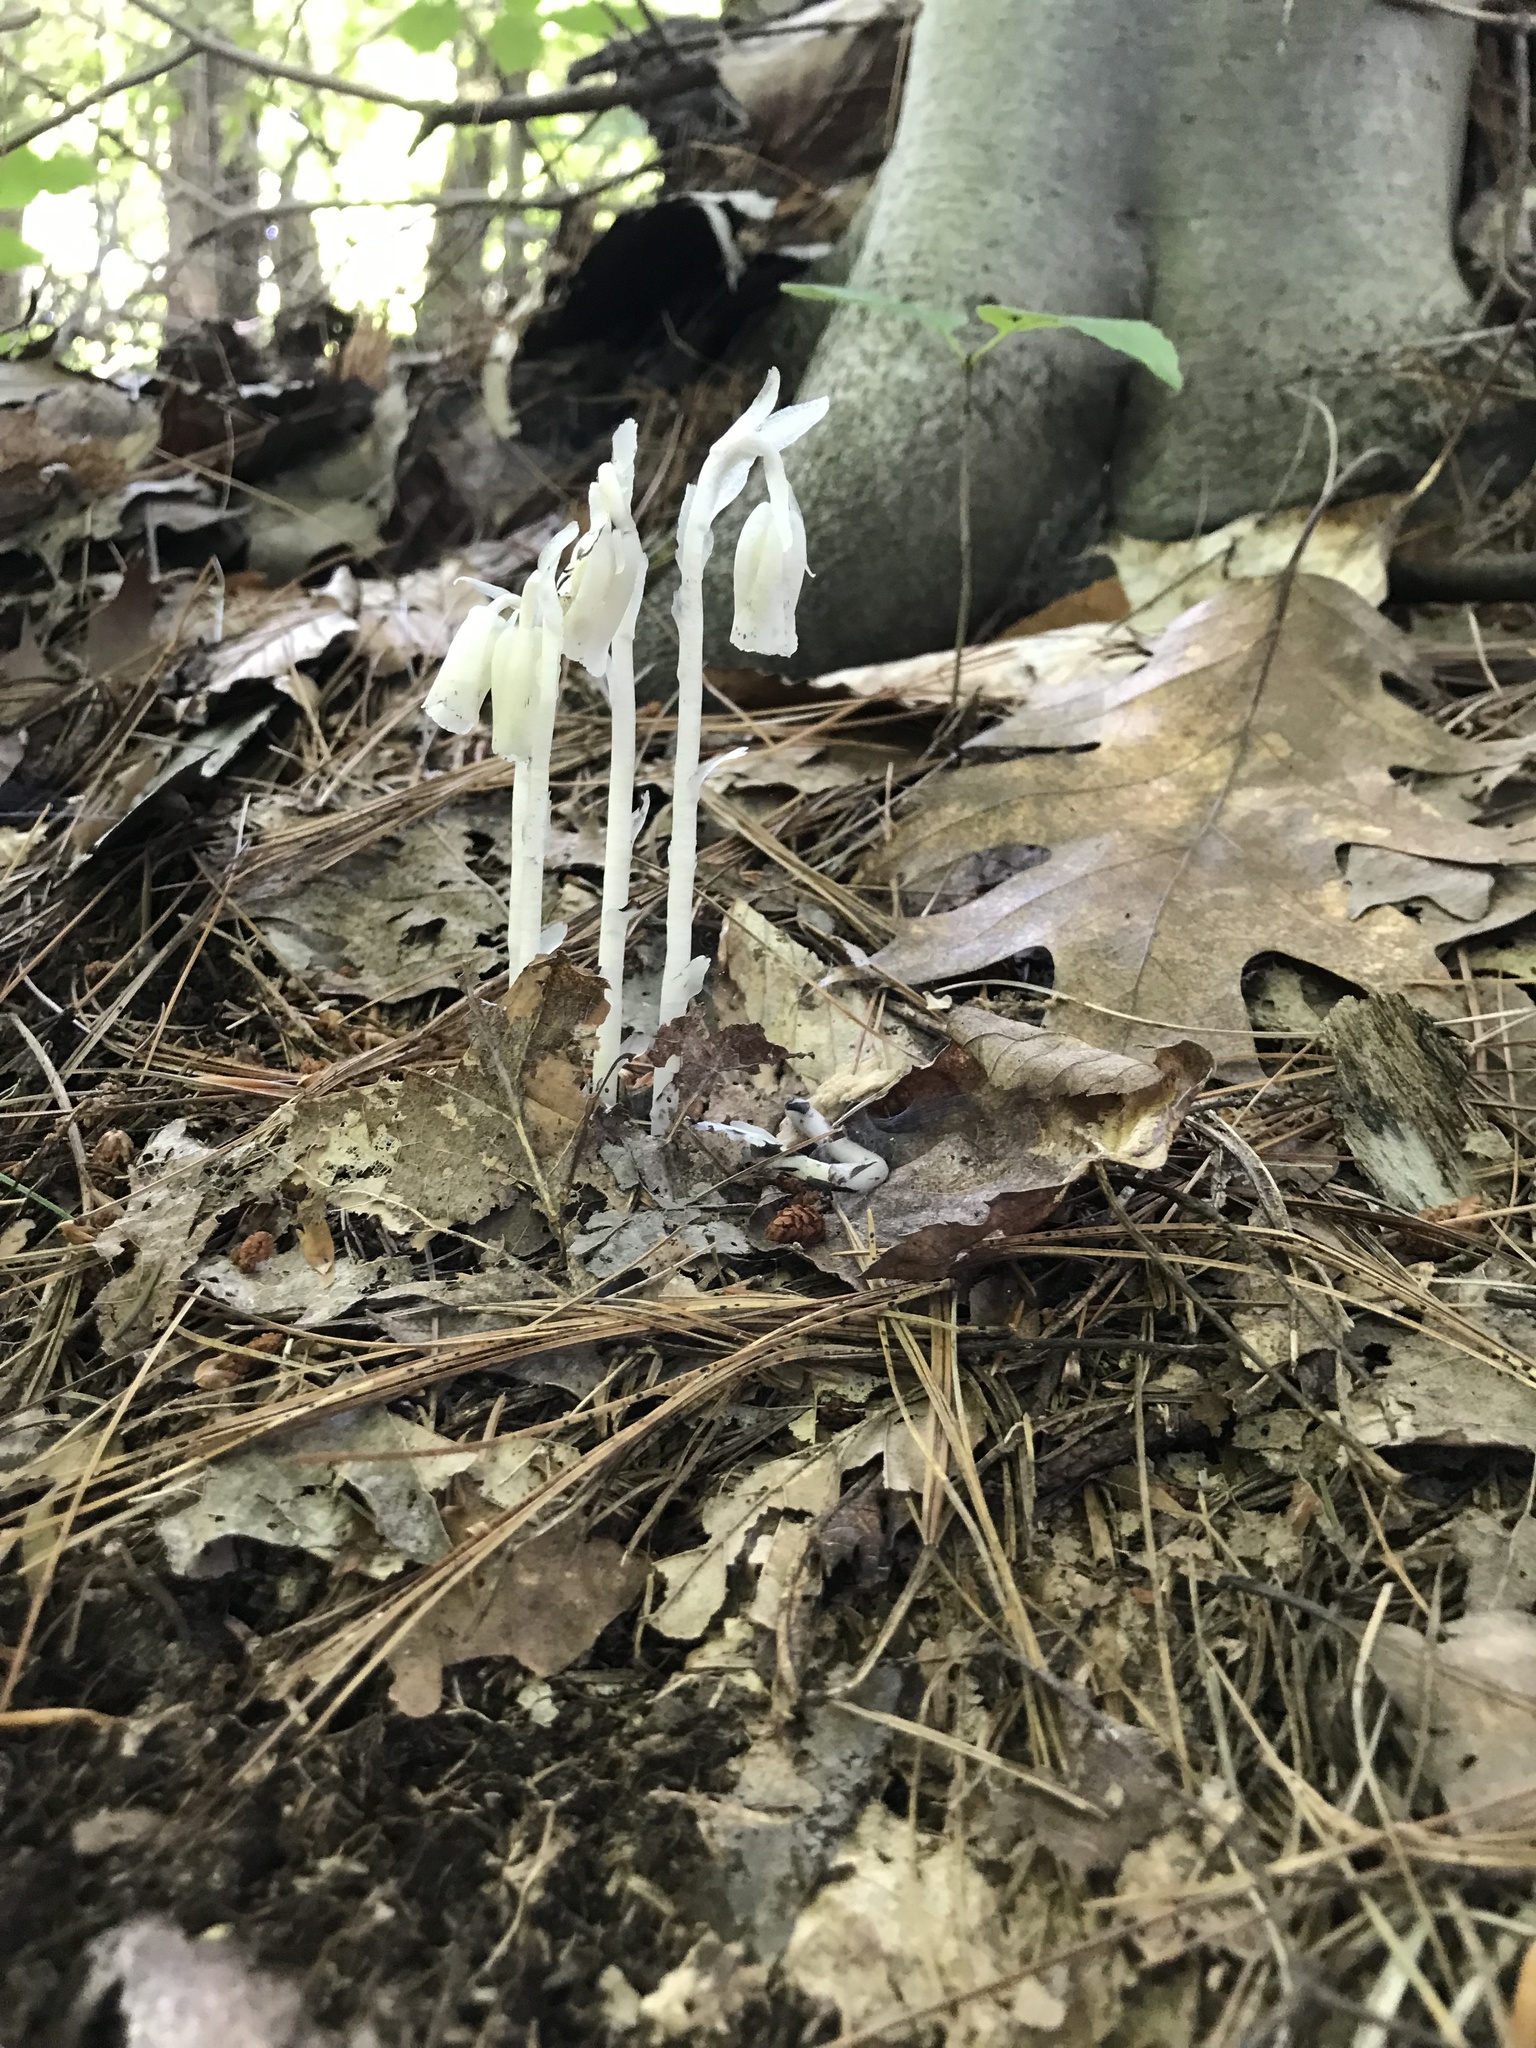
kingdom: Plantae
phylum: Tracheophyta
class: Magnoliopsida
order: Ericales
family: Ericaceae
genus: Monotropa
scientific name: Monotropa uniflora
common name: Convulsion root
